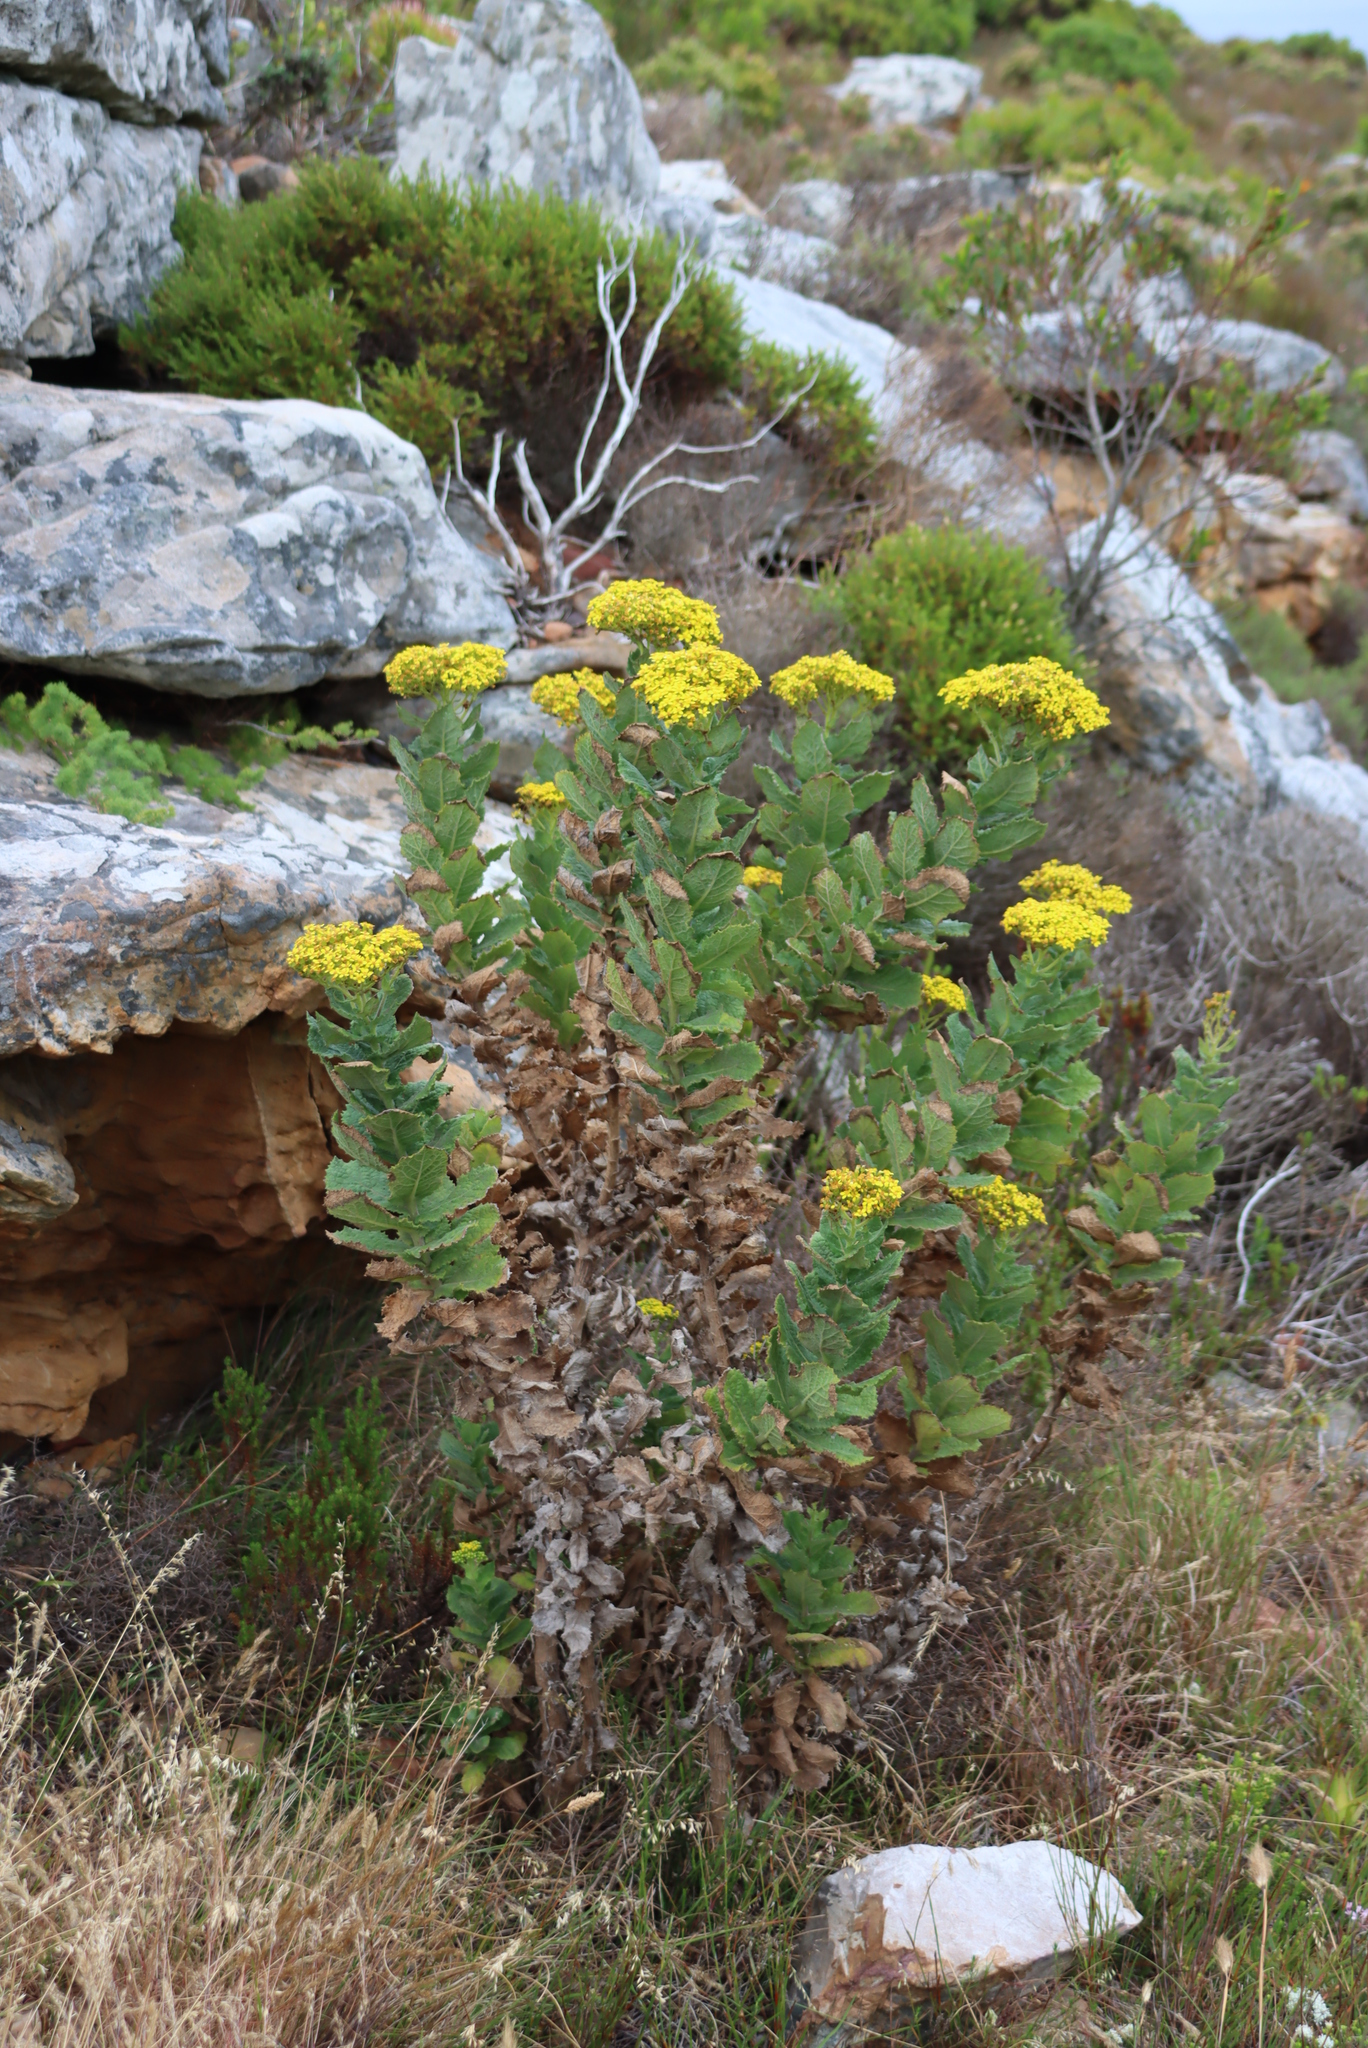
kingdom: Plantae
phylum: Tracheophyta
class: Magnoliopsida
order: Asterales
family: Asteraceae
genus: Senecio
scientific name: Senecio rigidus
